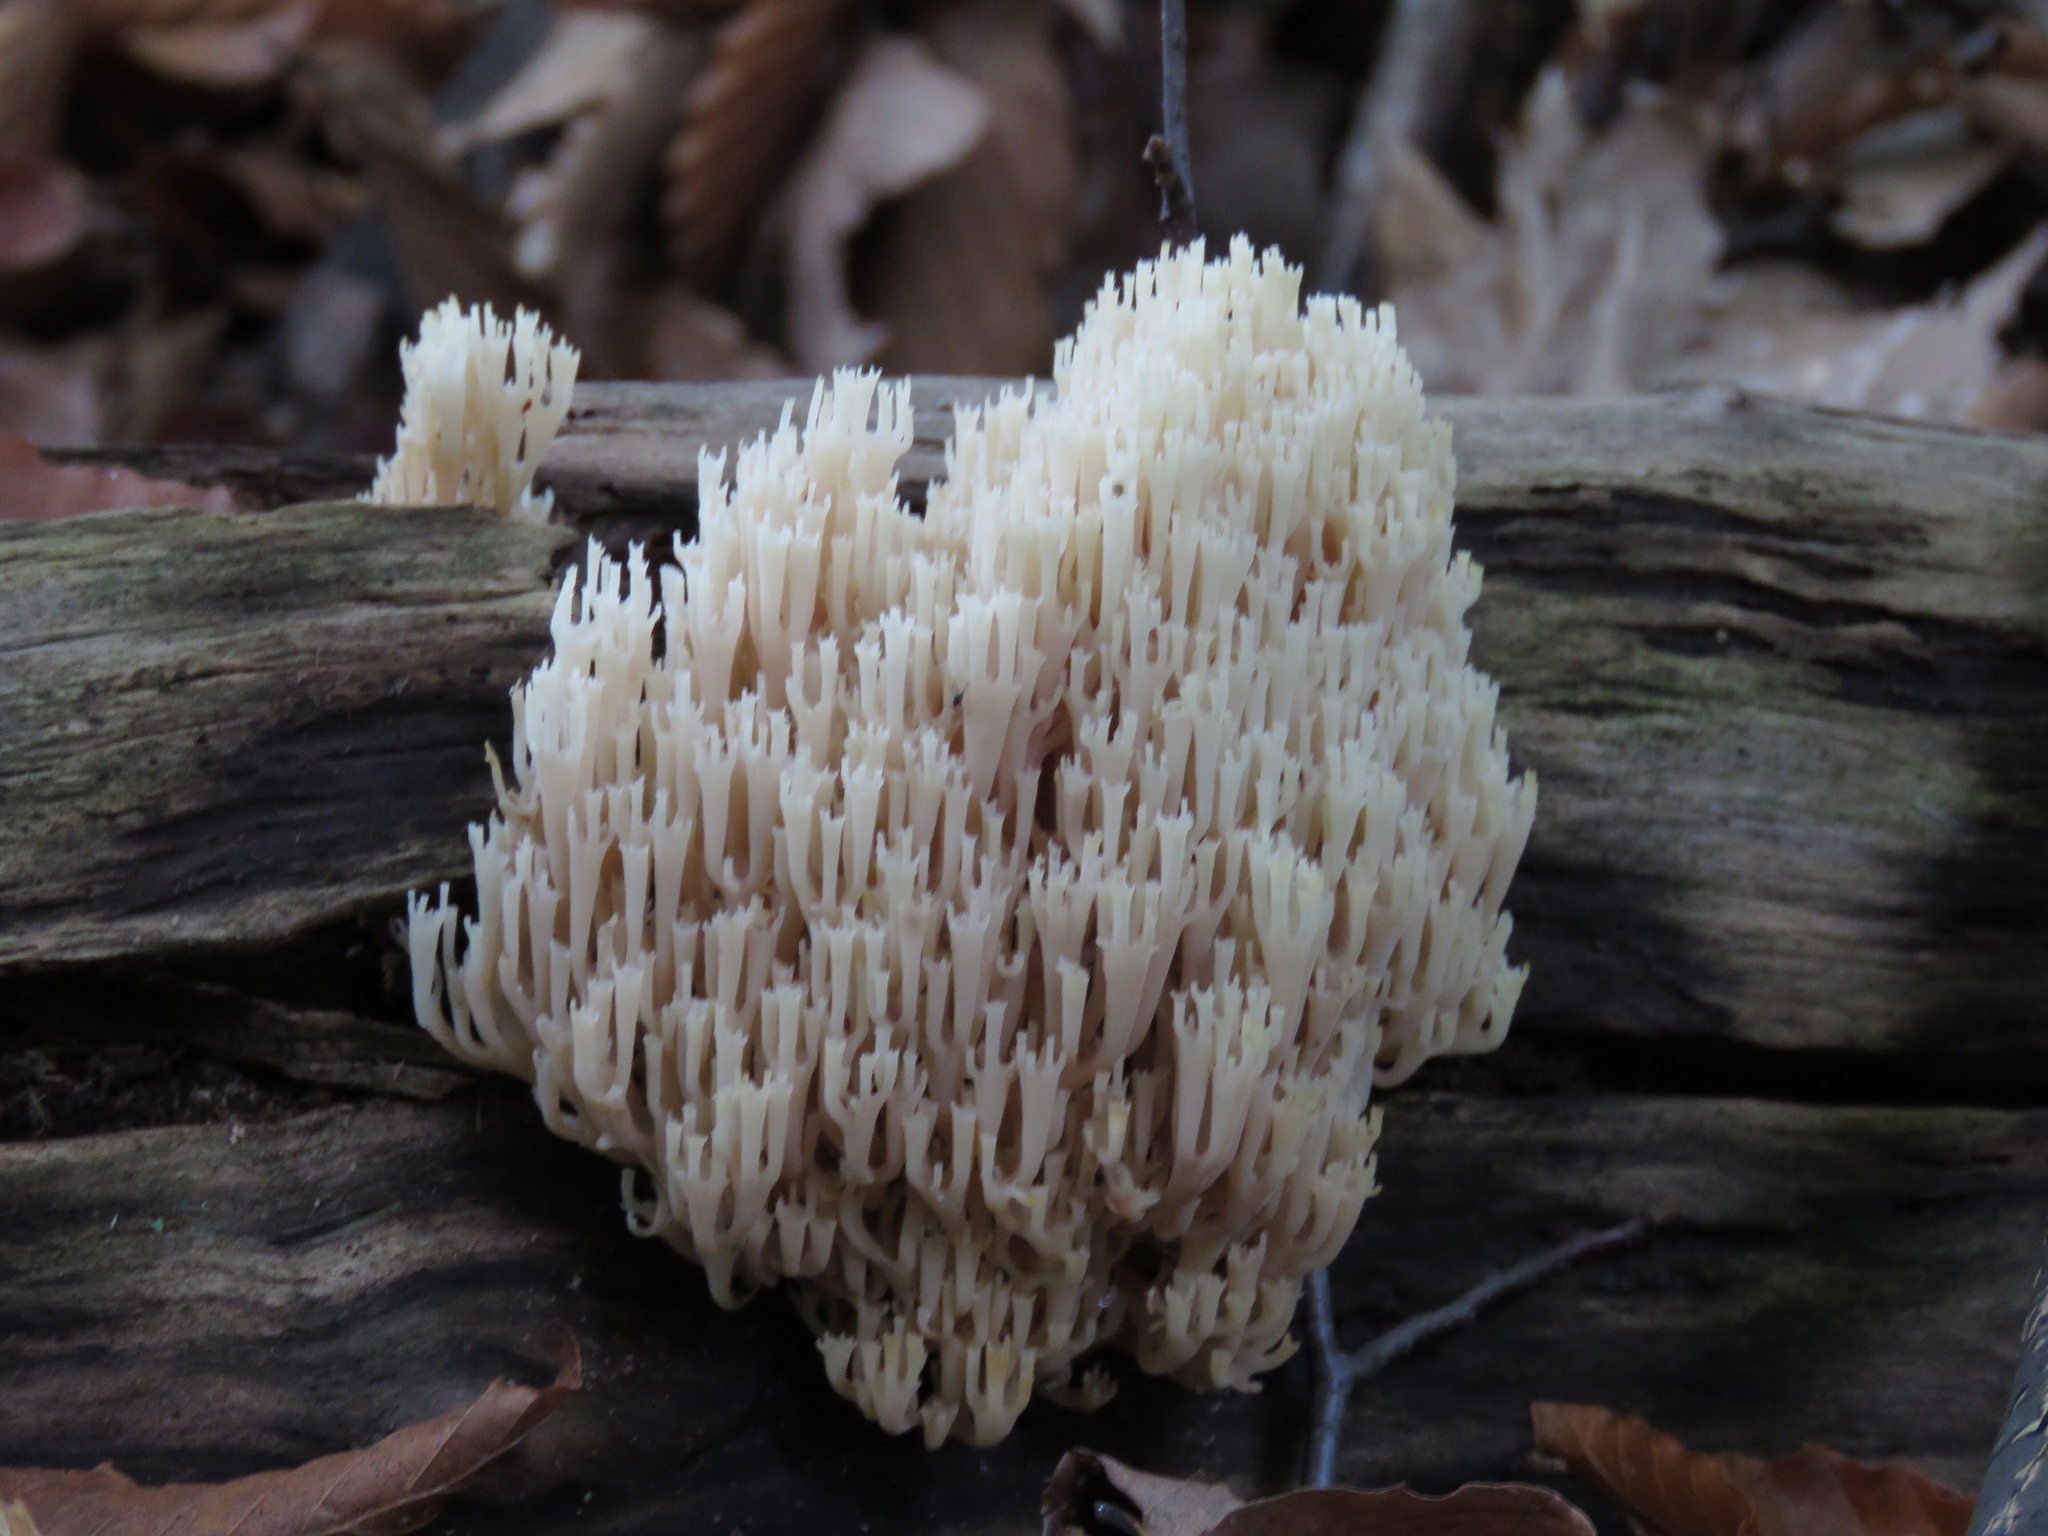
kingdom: Fungi
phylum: Basidiomycota
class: Agaricomycetes
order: Russulales
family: Auriscalpiaceae
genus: Artomyces
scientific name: Artomyces pyxidatus
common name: Crown-tipped coral fungus
